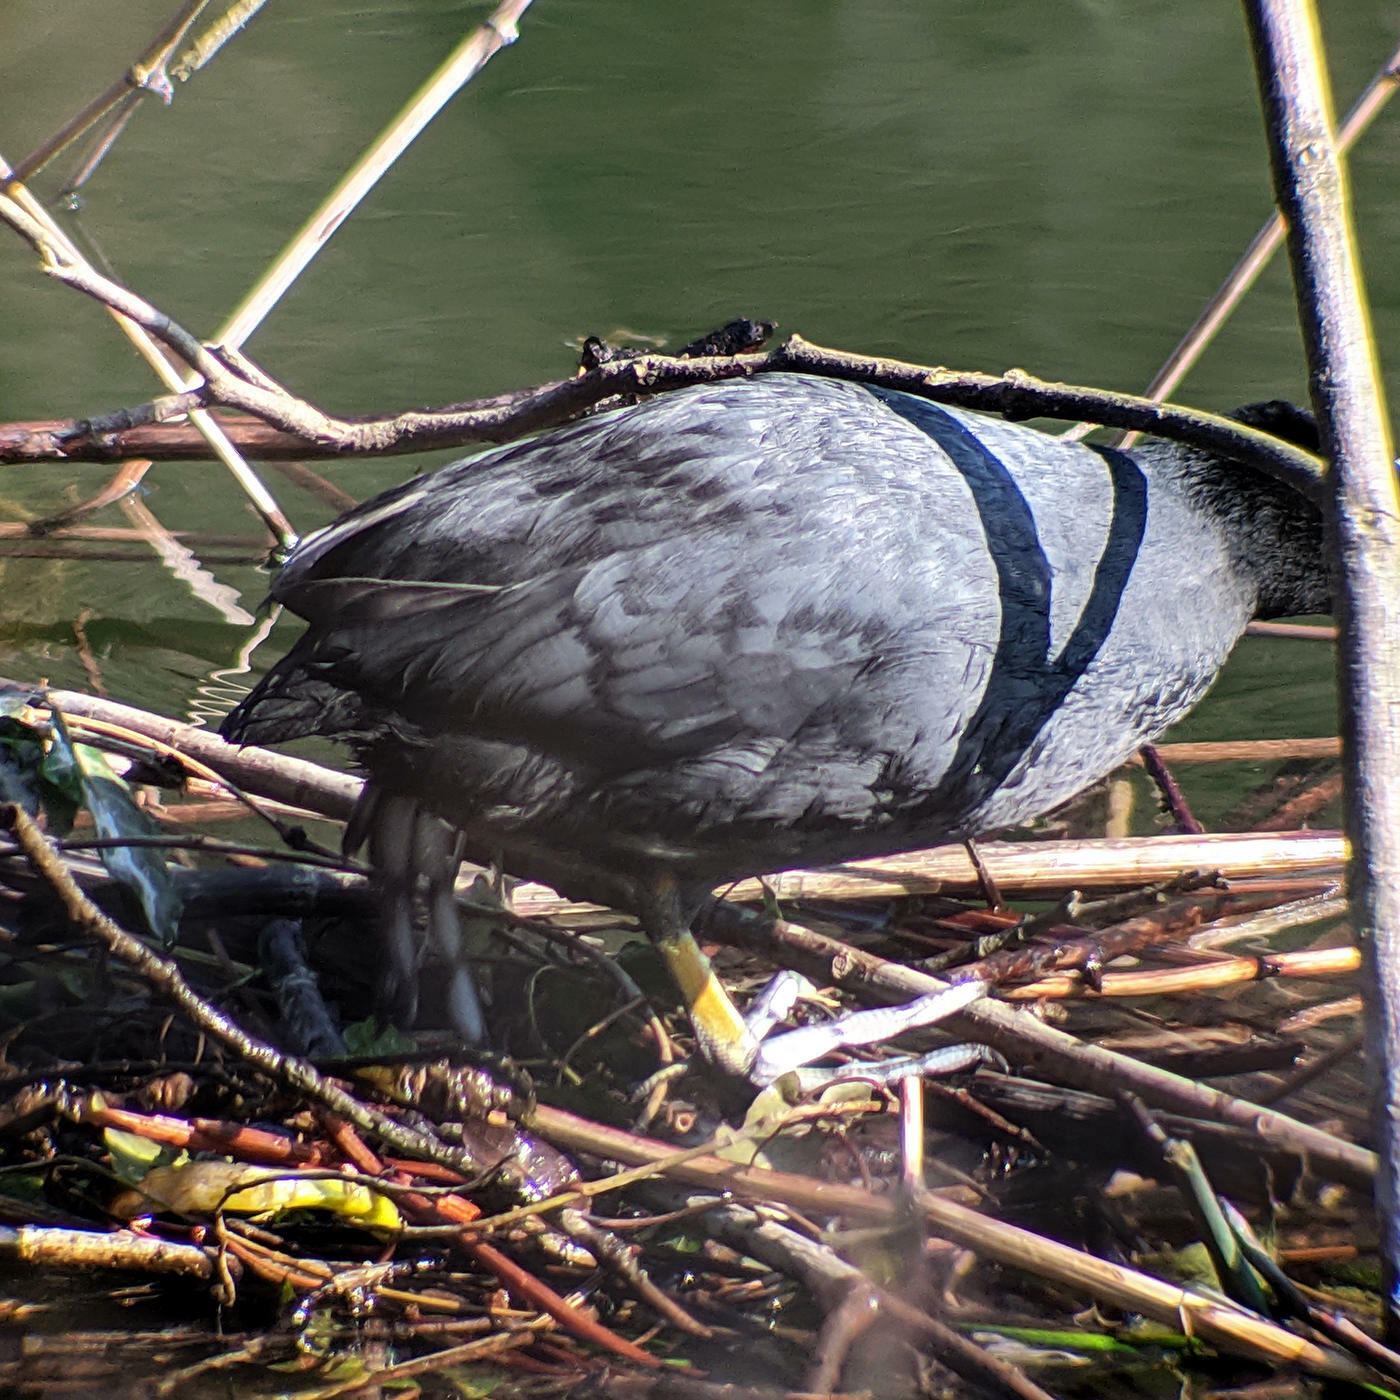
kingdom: Animalia
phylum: Chordata
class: Aves
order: Gruiformes
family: Rallidae
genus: Fulica
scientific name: Fulica atra
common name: Eurasian coot
